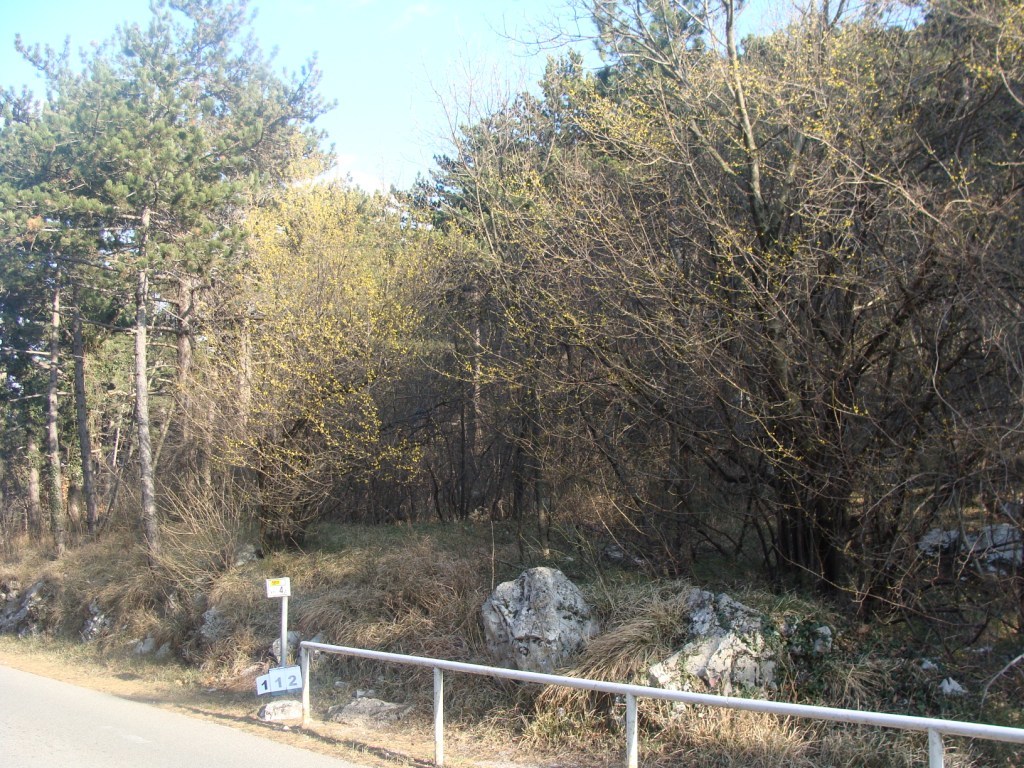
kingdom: Plantae
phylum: Tracheophyta
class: Magnoliopsida
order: Cornales
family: Cornaceae
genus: Cornus
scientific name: Cornus mas
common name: Cornelian-cherry
